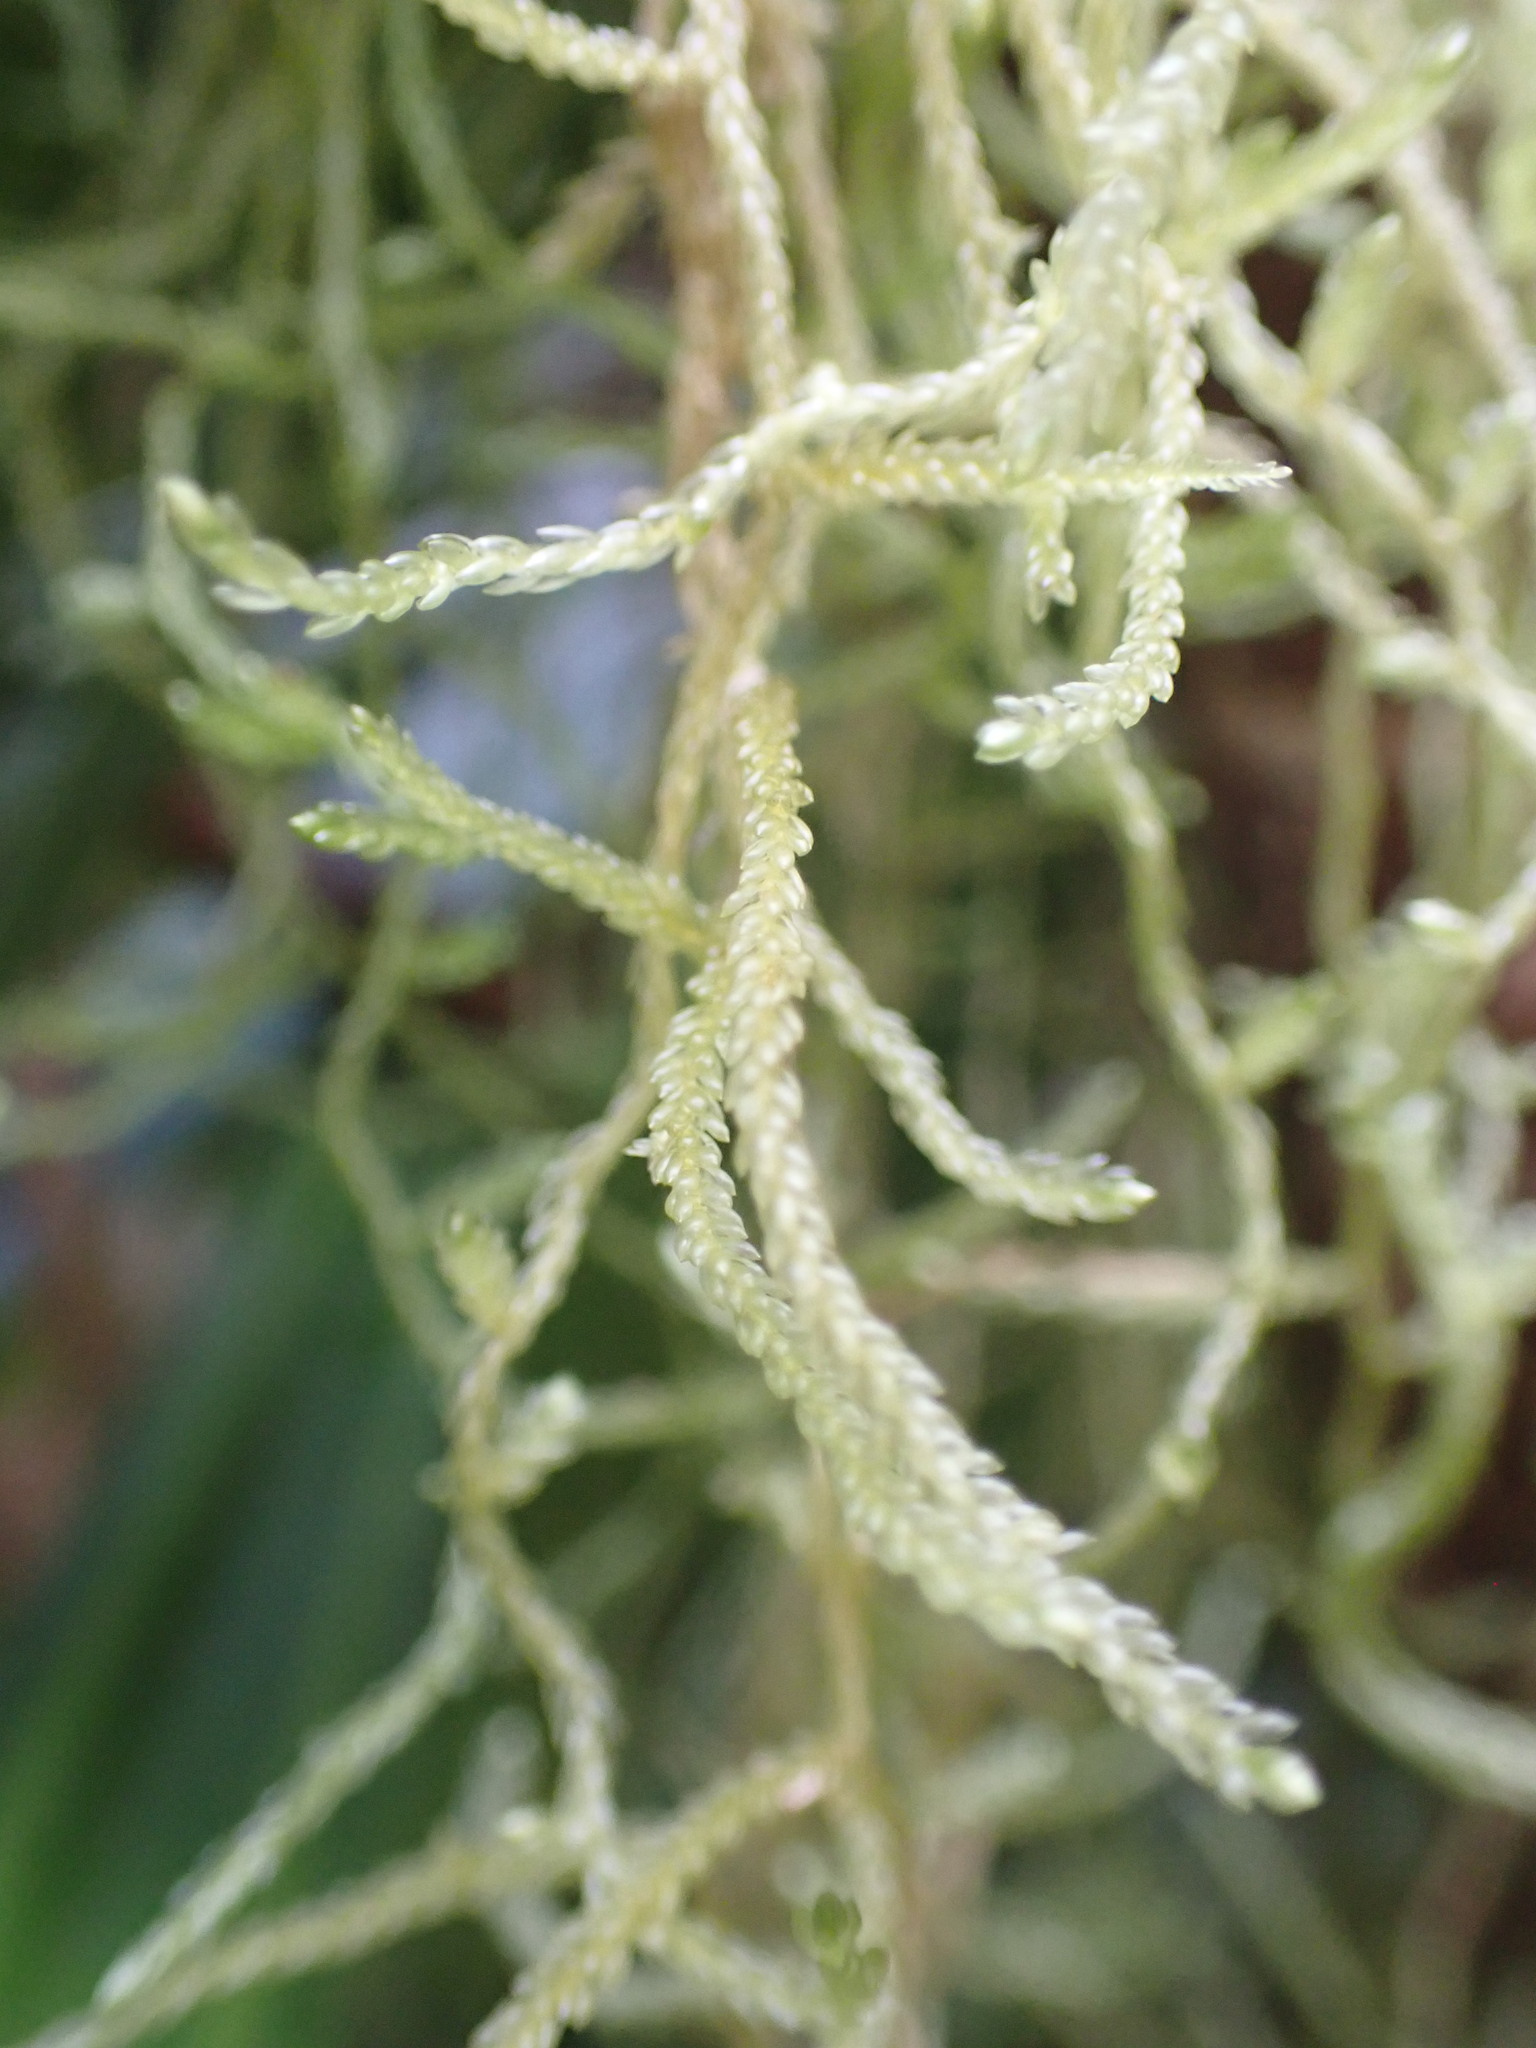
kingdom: Plantae
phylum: Bryophyta
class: Bryopsida
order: Hypnales
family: Lembophyllaceae
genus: Weymouthia
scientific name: Weymouthia mollis
